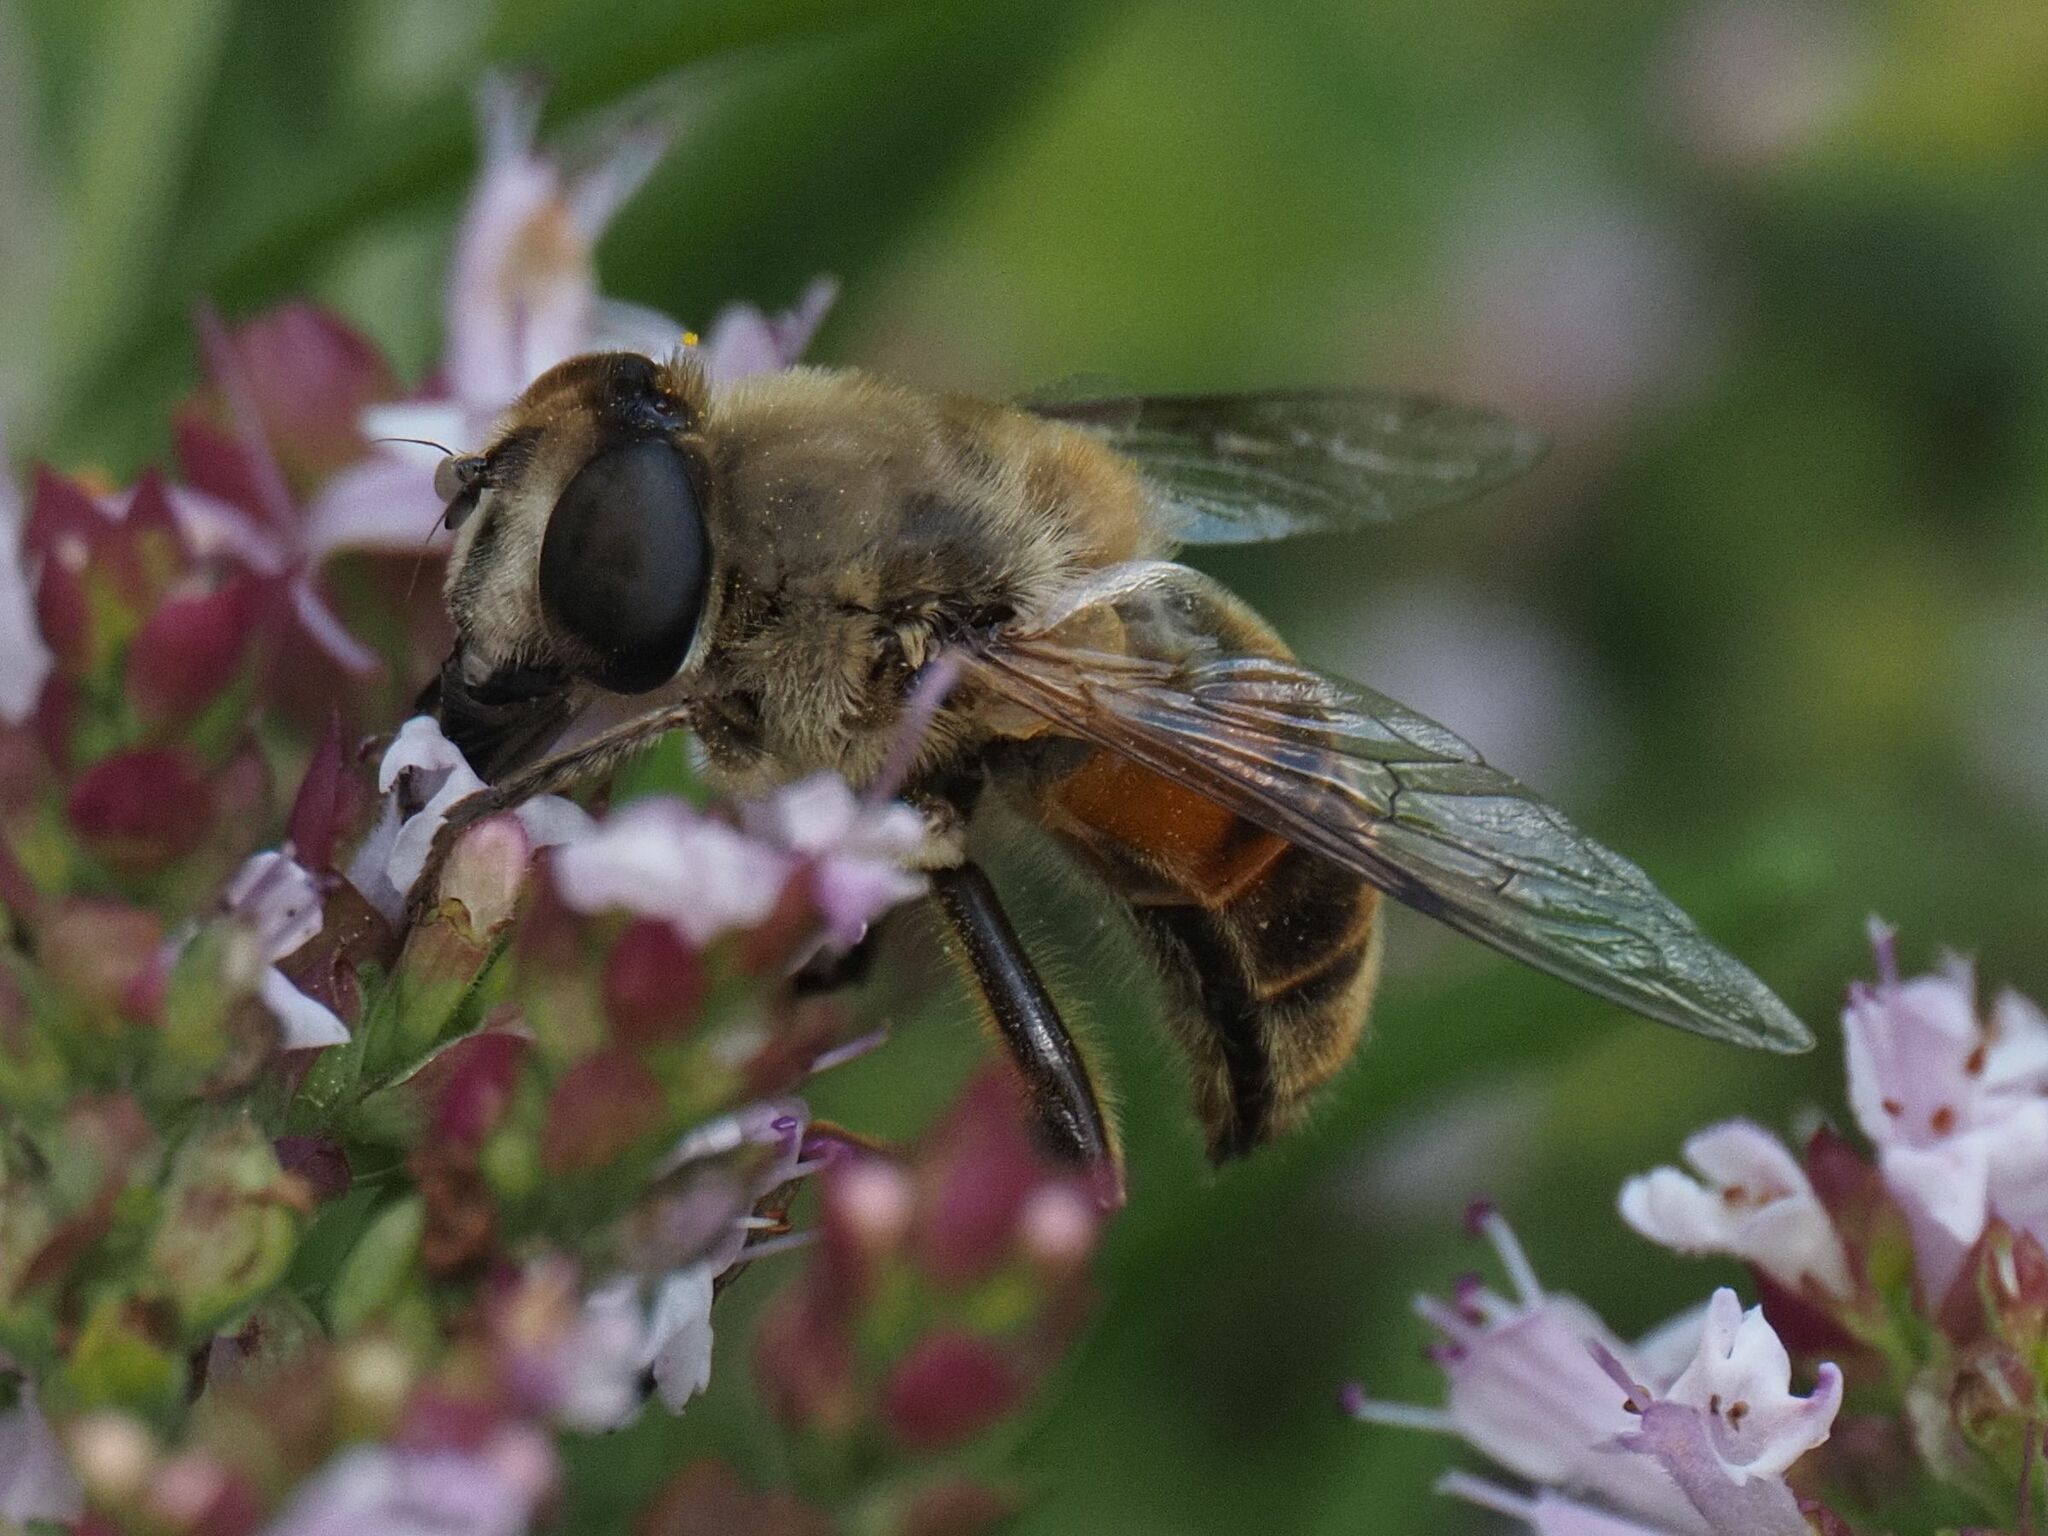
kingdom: Animalia
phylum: Arthropoda
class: Insecta
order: Diptera
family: Syrphidae
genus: Eristalis
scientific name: Eristalis tenax
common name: Drone fly
